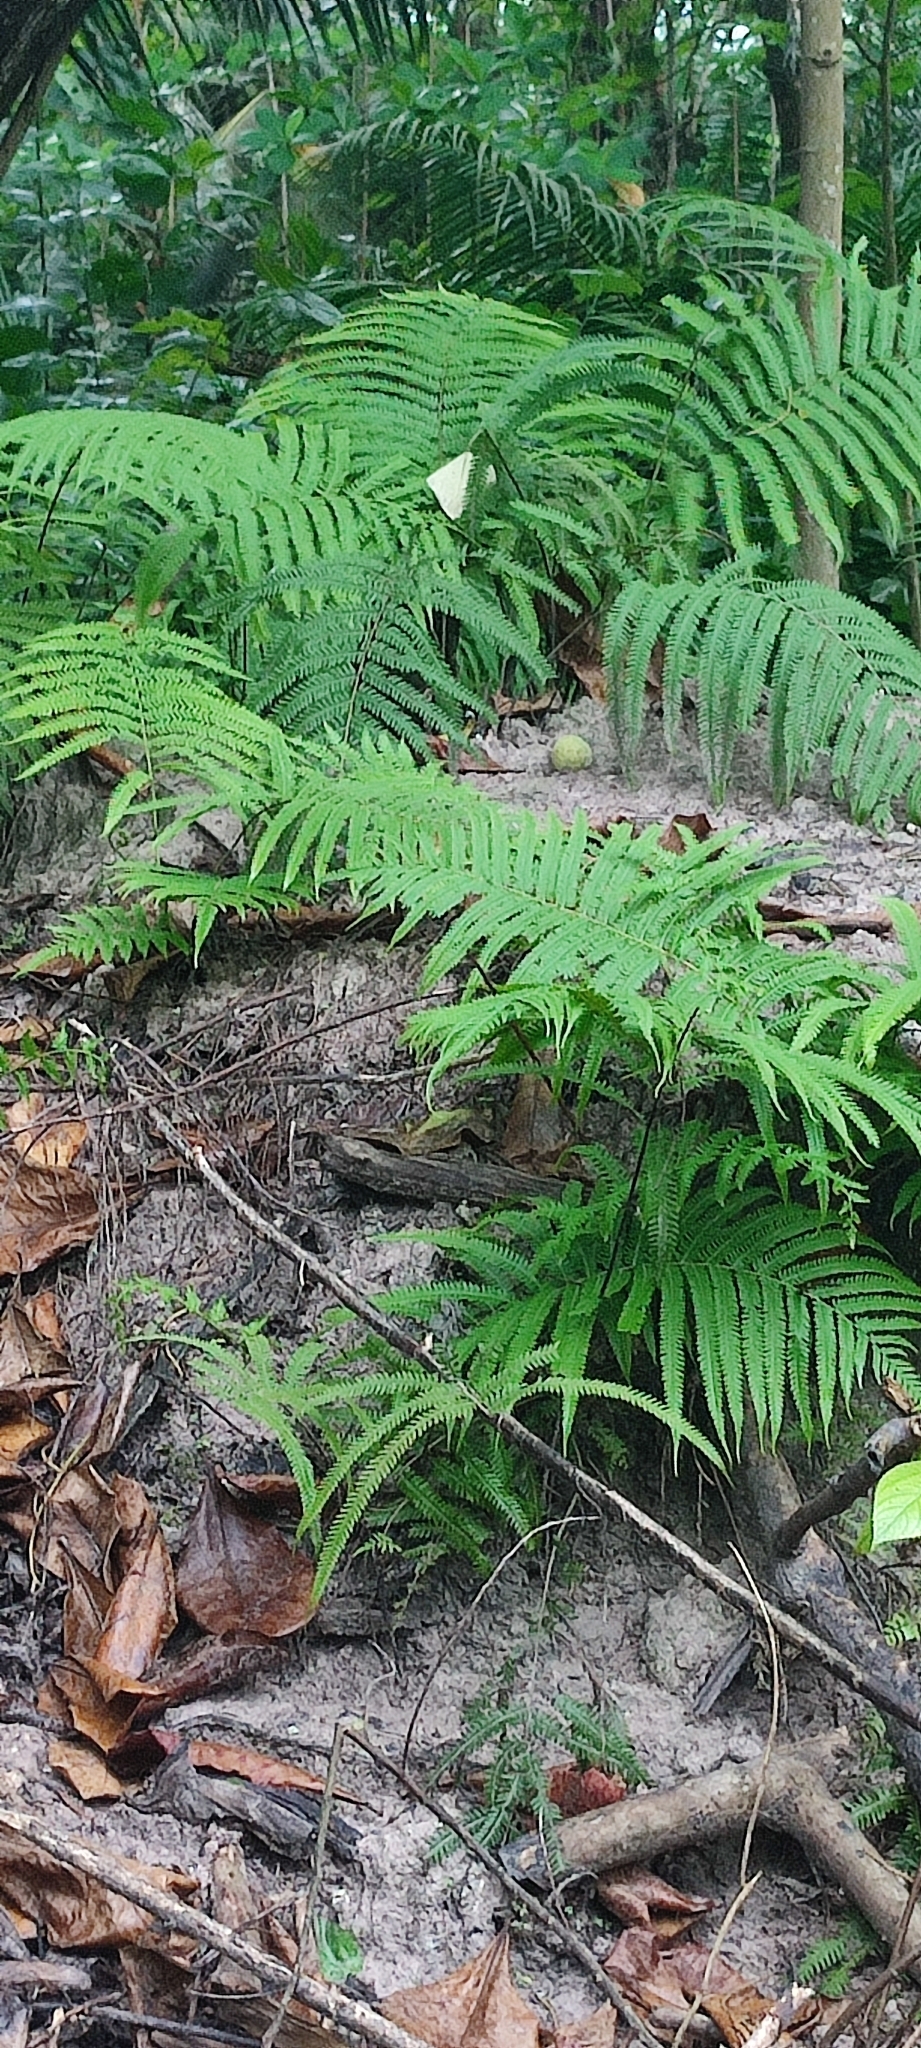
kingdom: Plantae
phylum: Tracheophyta
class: Polypodiopsida
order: Polypodiales
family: Thelypteridaceae
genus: Christella
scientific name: Christella parasitica
